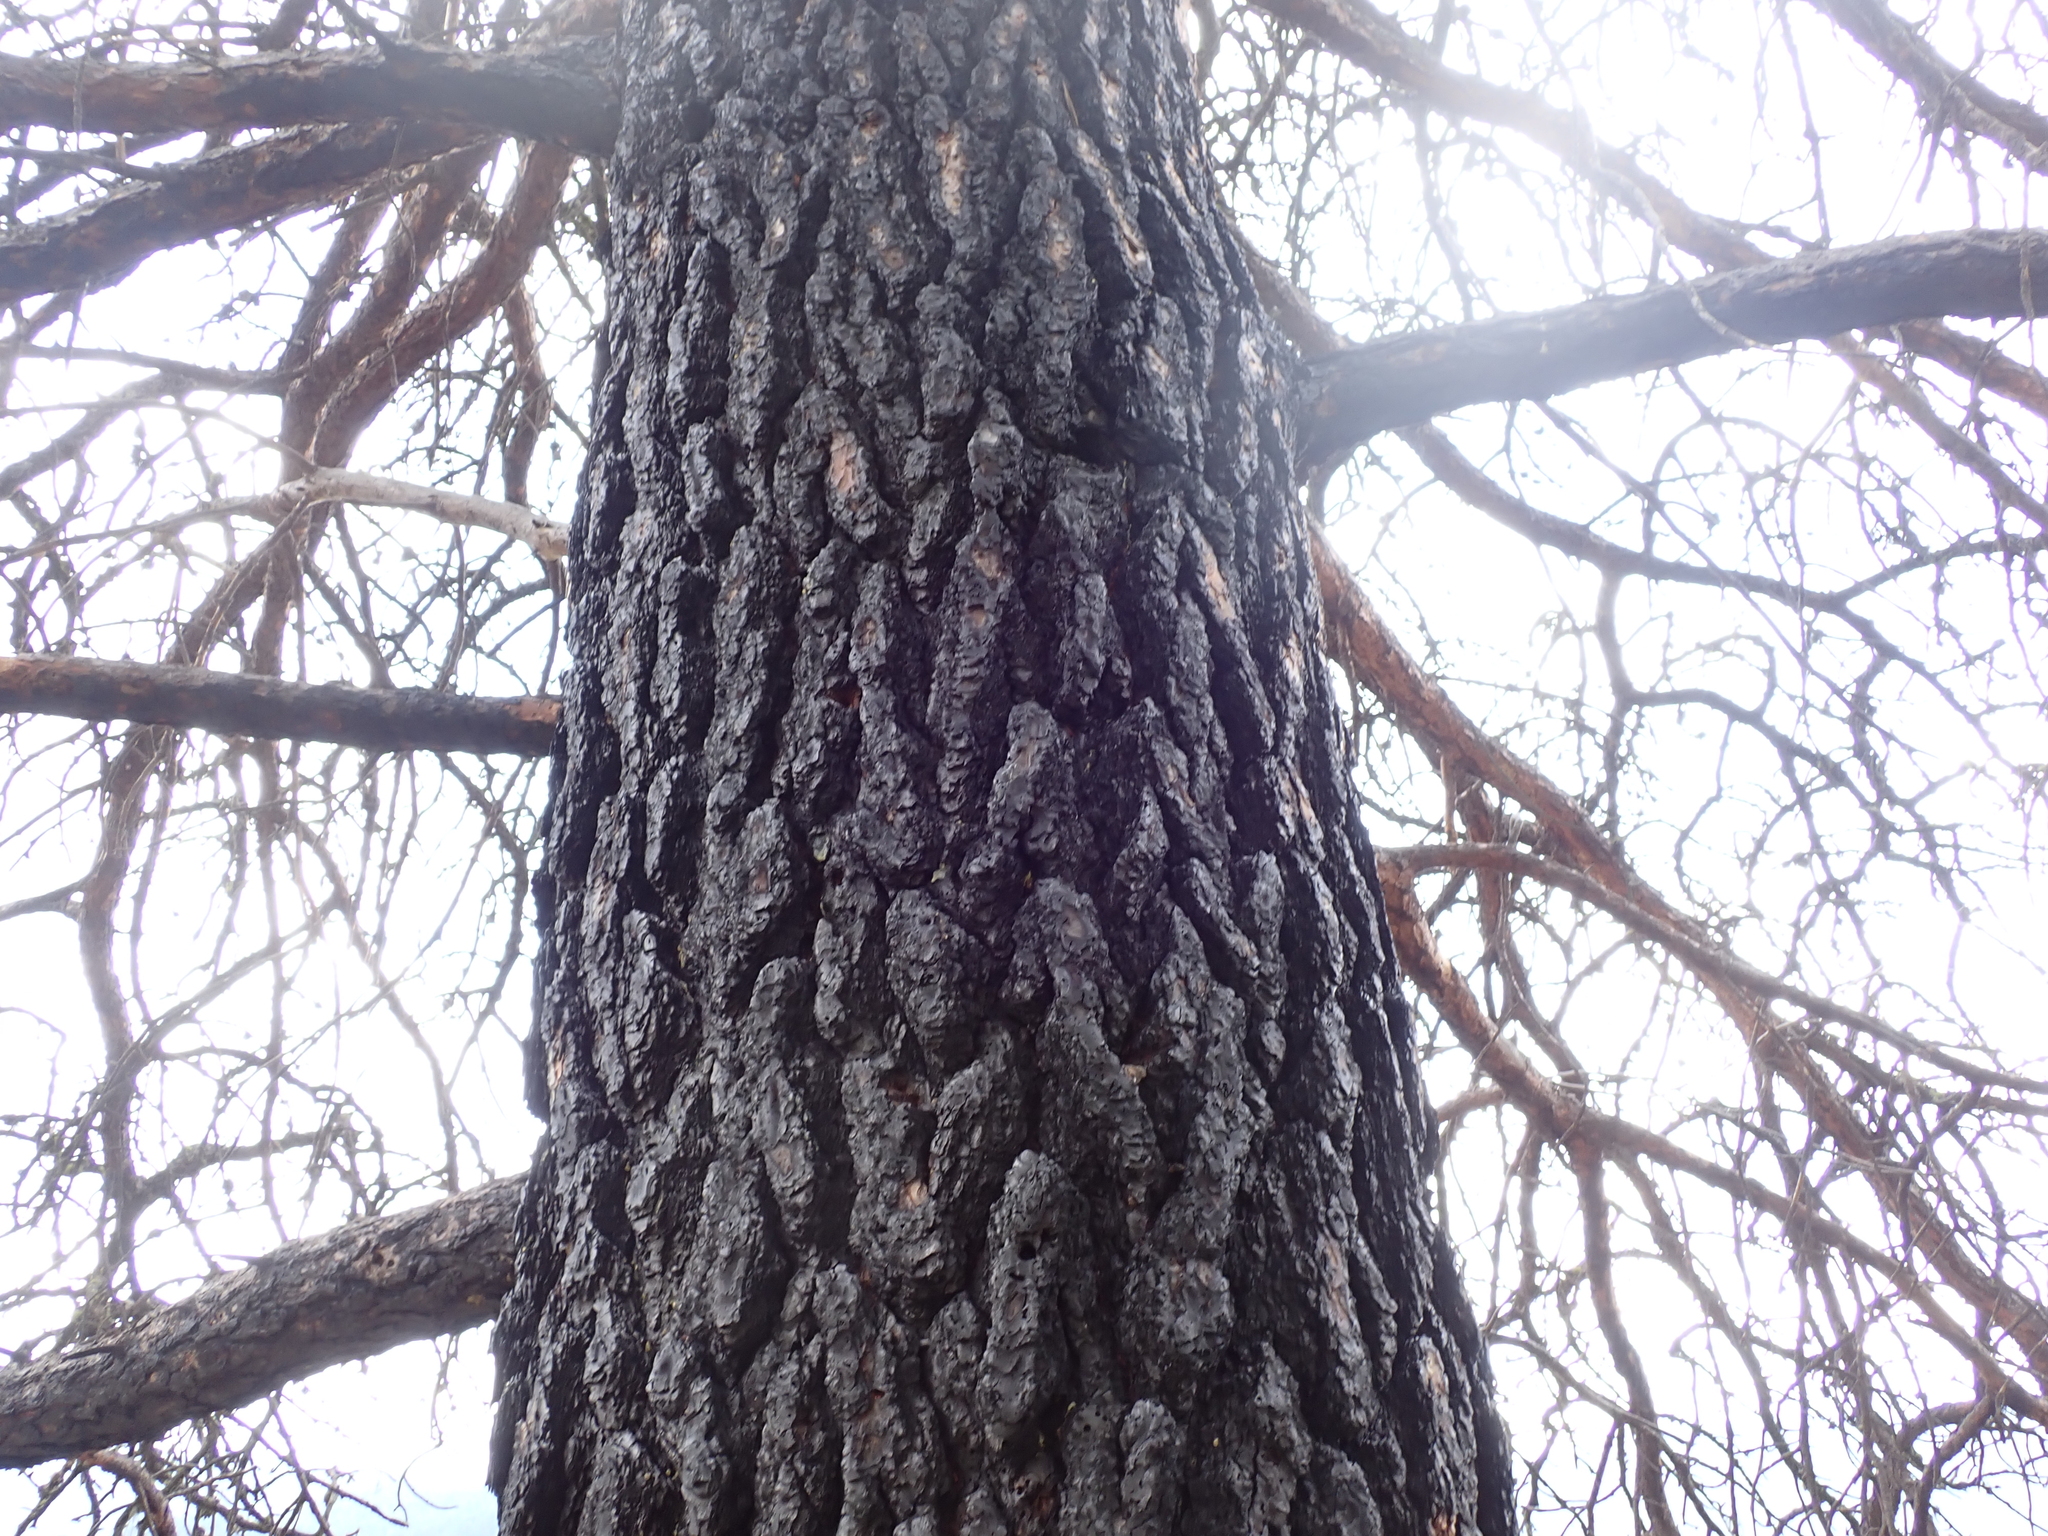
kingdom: Plantae
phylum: Tracheophyta
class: Pinopsida
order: Pinales
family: Pinaceae
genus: Pinus
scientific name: Pinus ponderosa
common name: Western yellow-pine
